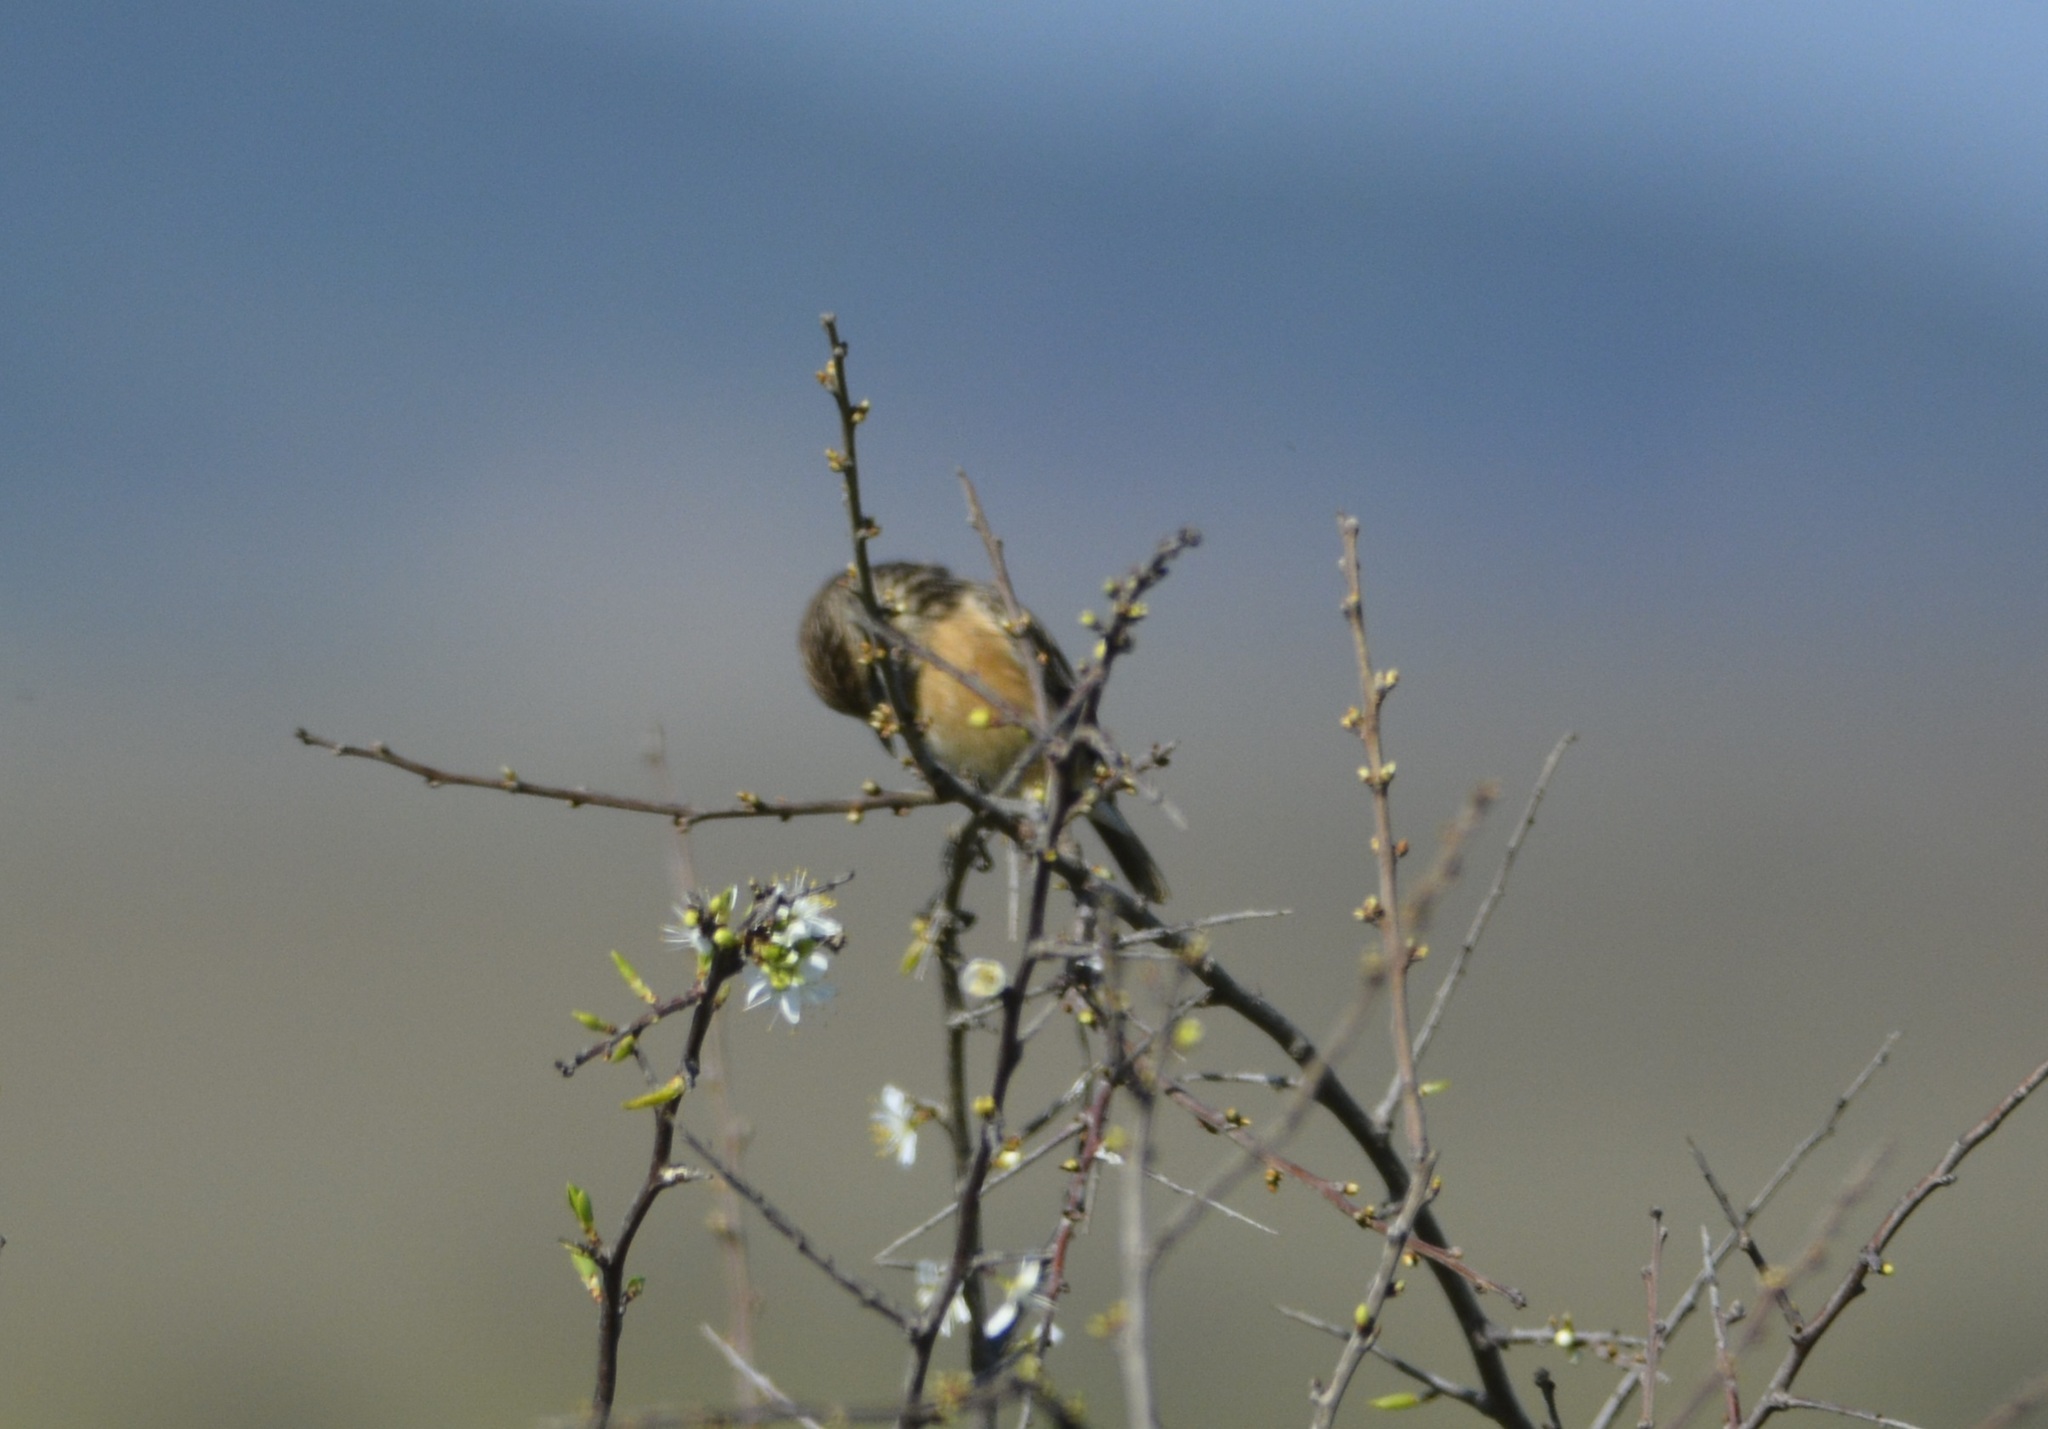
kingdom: Animalia
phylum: Chordata
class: Aves
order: Passeriformes
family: Muscicapidae
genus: Saxicola
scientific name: Saxicola rubicola
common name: European stonechat
